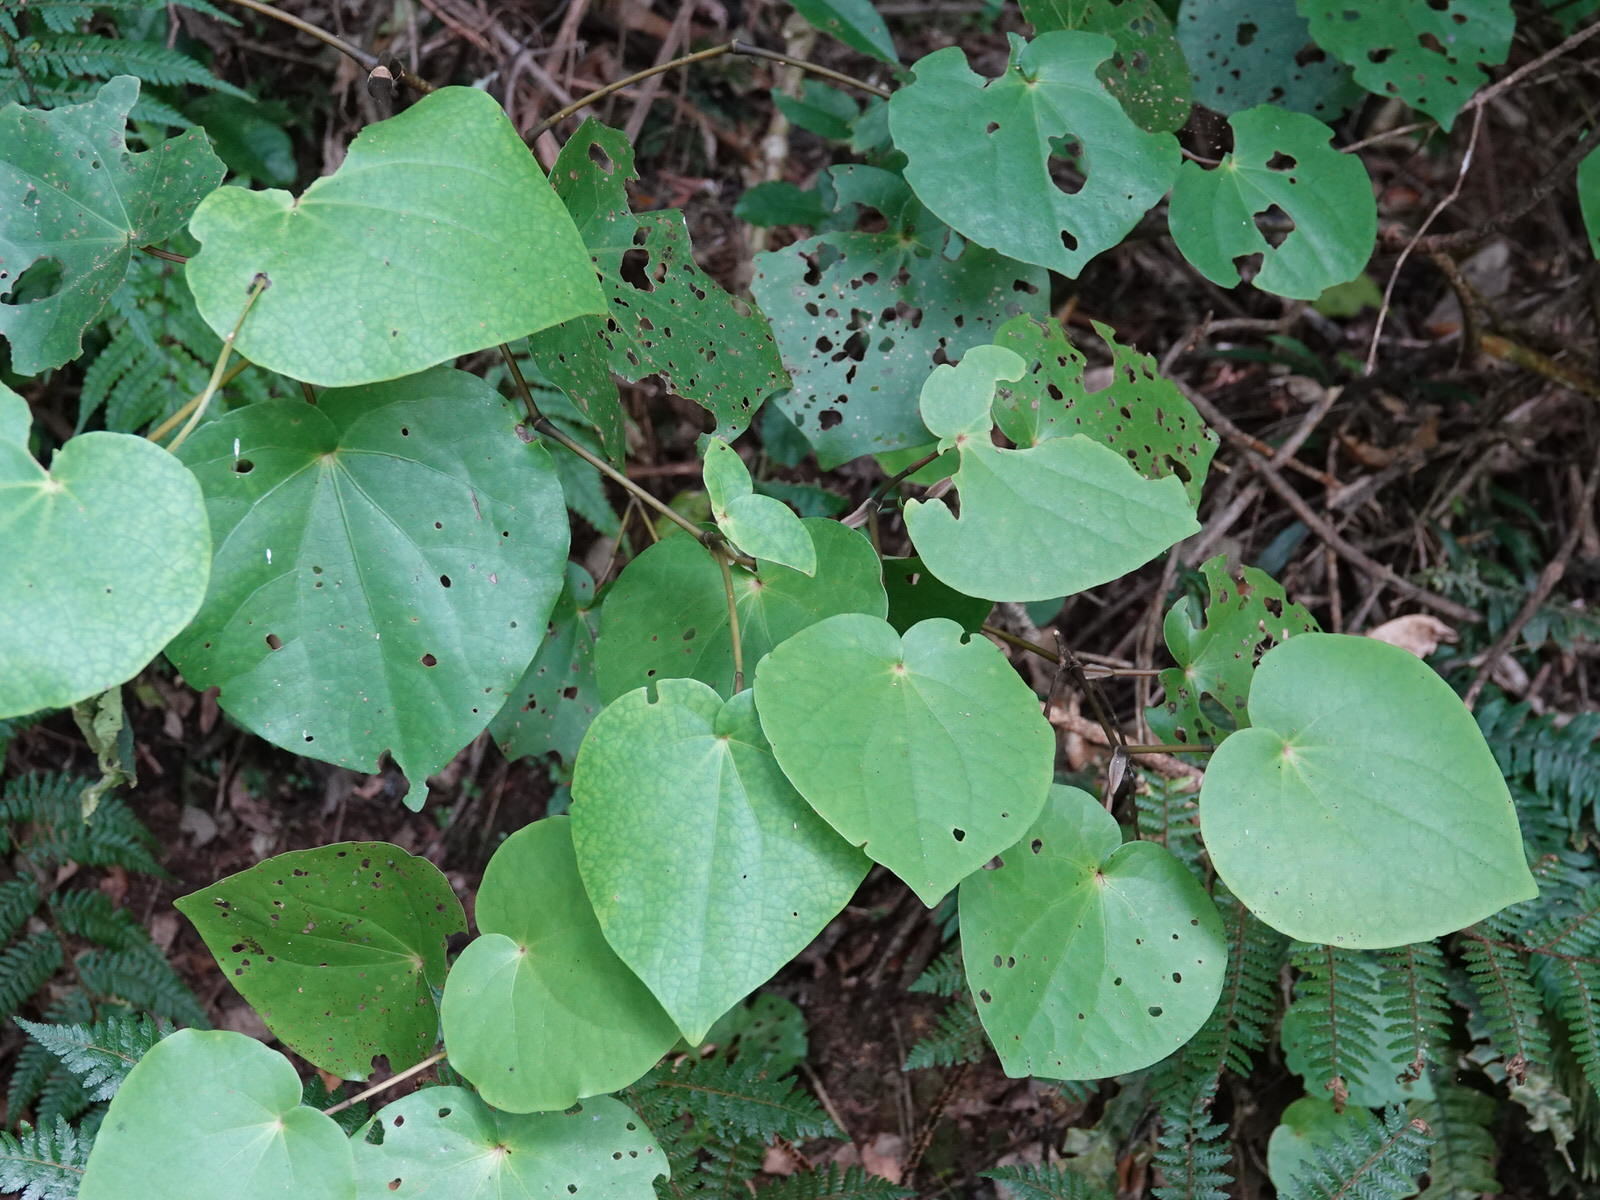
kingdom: Plantae
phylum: Tracheophyta
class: Magnoliopsida
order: Piperales
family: Piperaceae
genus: Macropiper
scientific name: Macropiper excelsum
